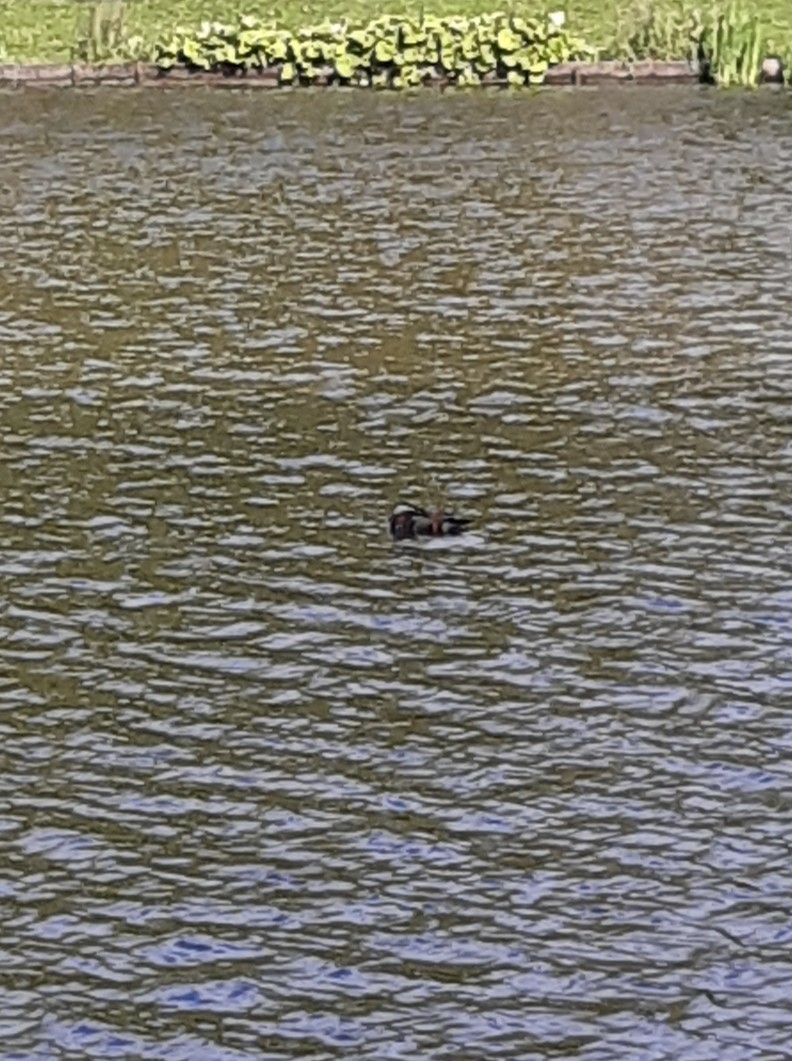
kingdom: Animalia
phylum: Chordata
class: Aves
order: Anseriformes
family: Anatidae
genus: Aix
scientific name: Aix galericulata
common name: Mandarin duck
